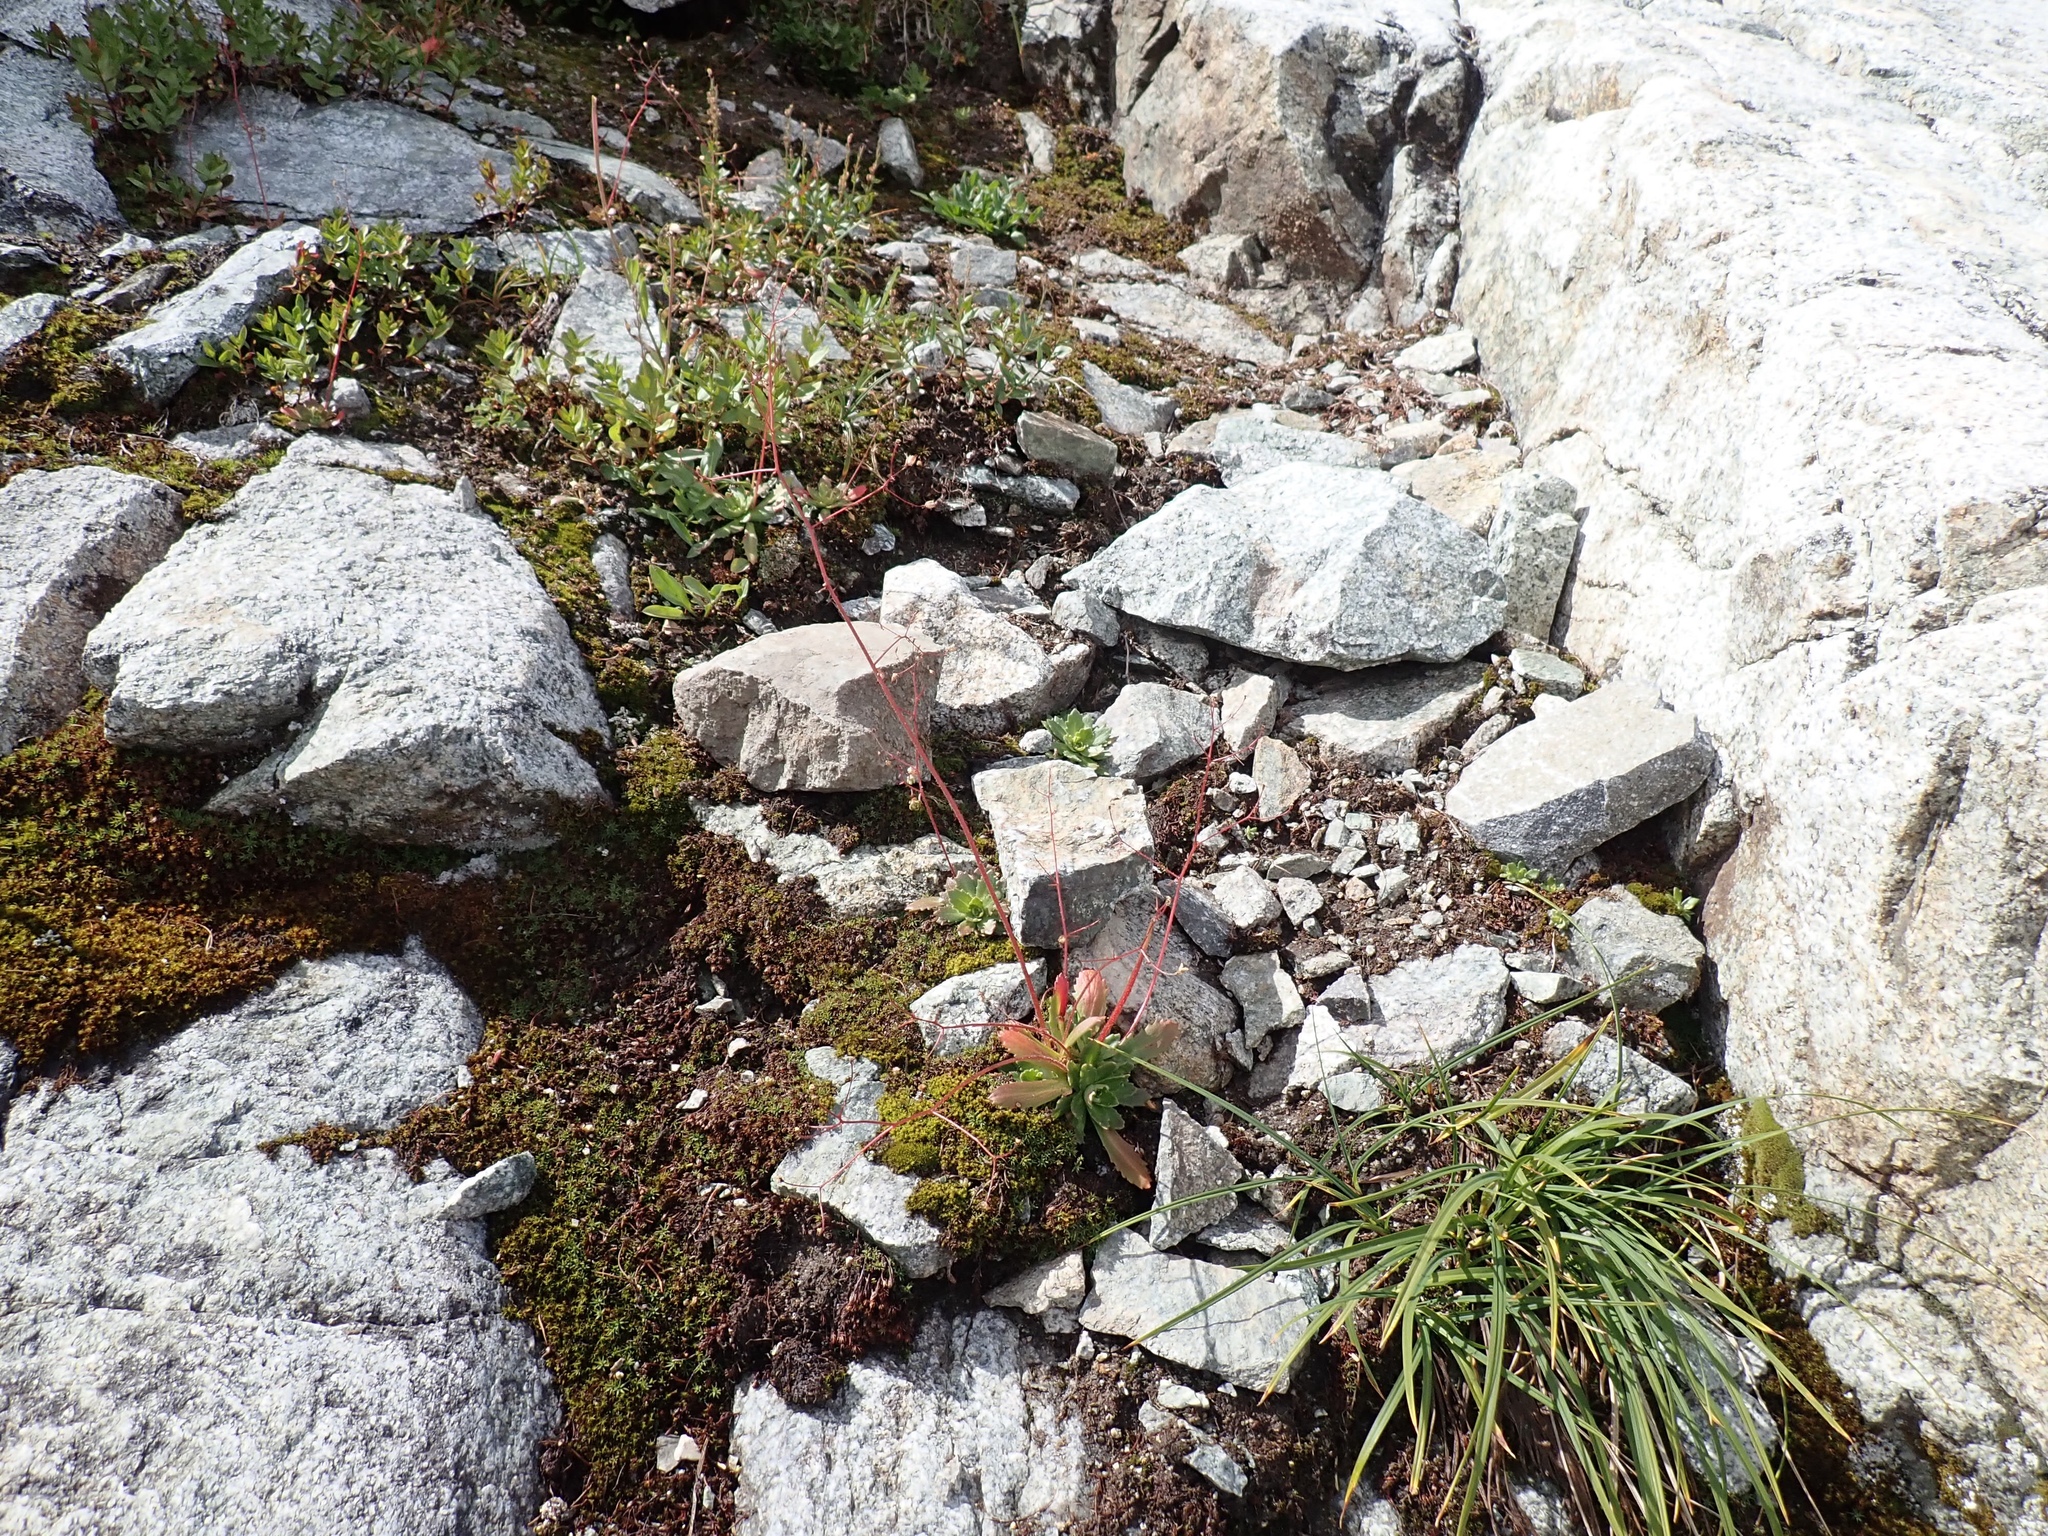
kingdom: Plantae
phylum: Tracheophyta
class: Magnoliopsida
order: Saxifragales
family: Saxifragaceae
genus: Micranthes
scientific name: Micranthes ferruginea
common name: Rusty saxifrage
